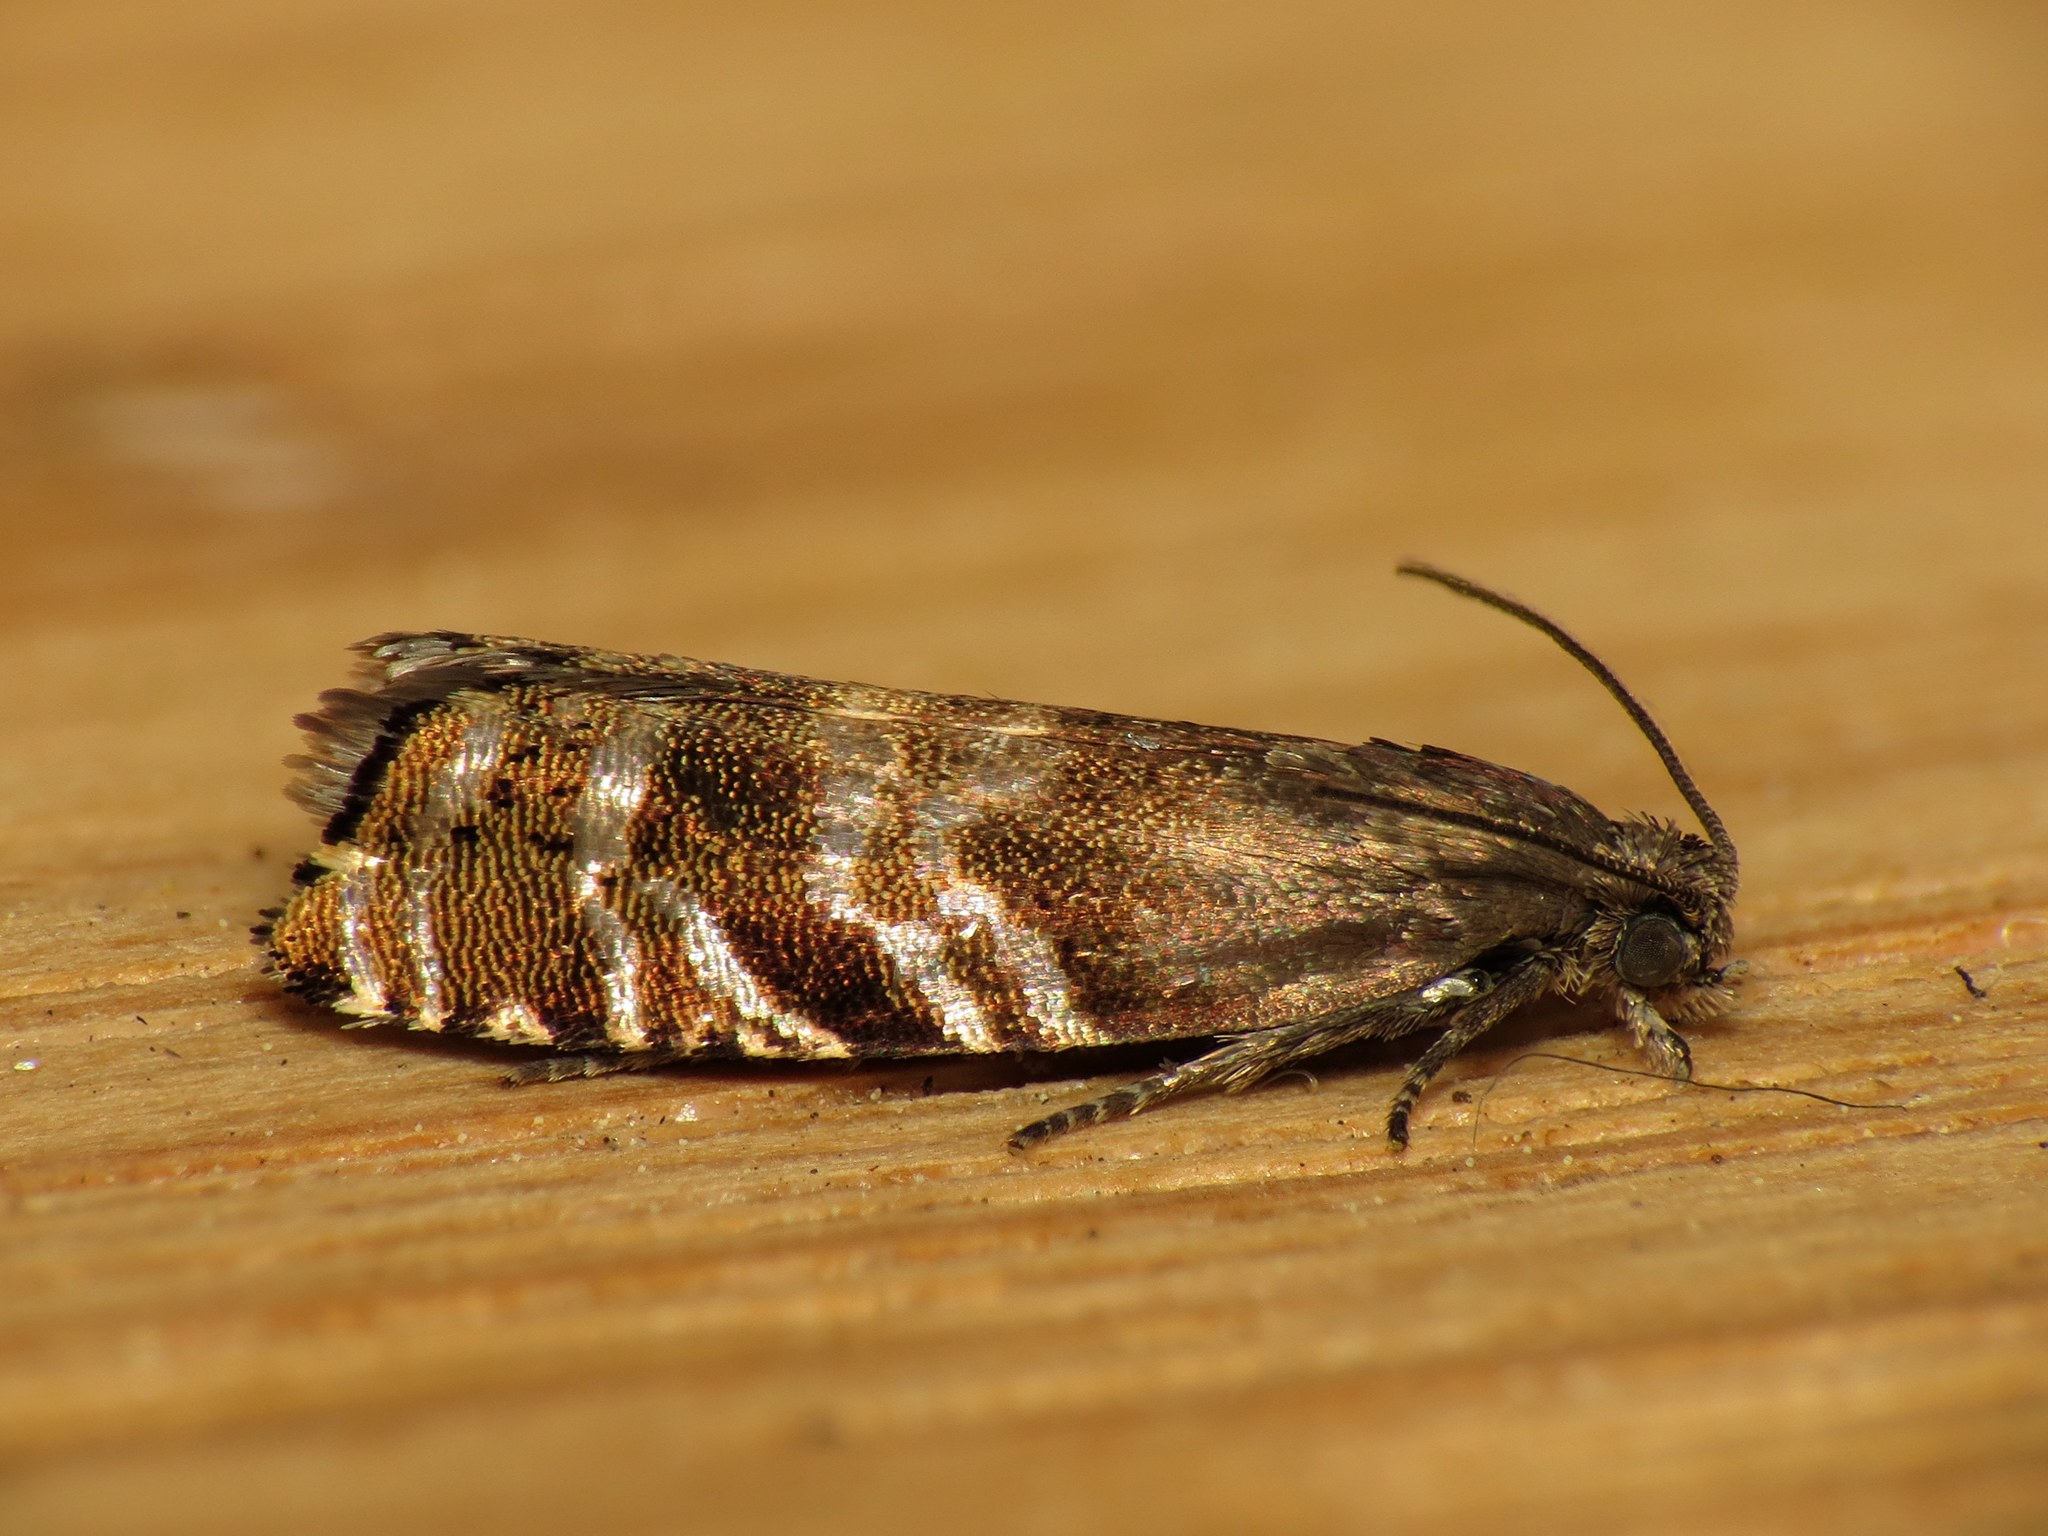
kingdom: Animalia
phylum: Arthropoda
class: Insecta
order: Lepidoptera
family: Tortricidae
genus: Cydia
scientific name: Cydia strobilella
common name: Spruce seed moth
